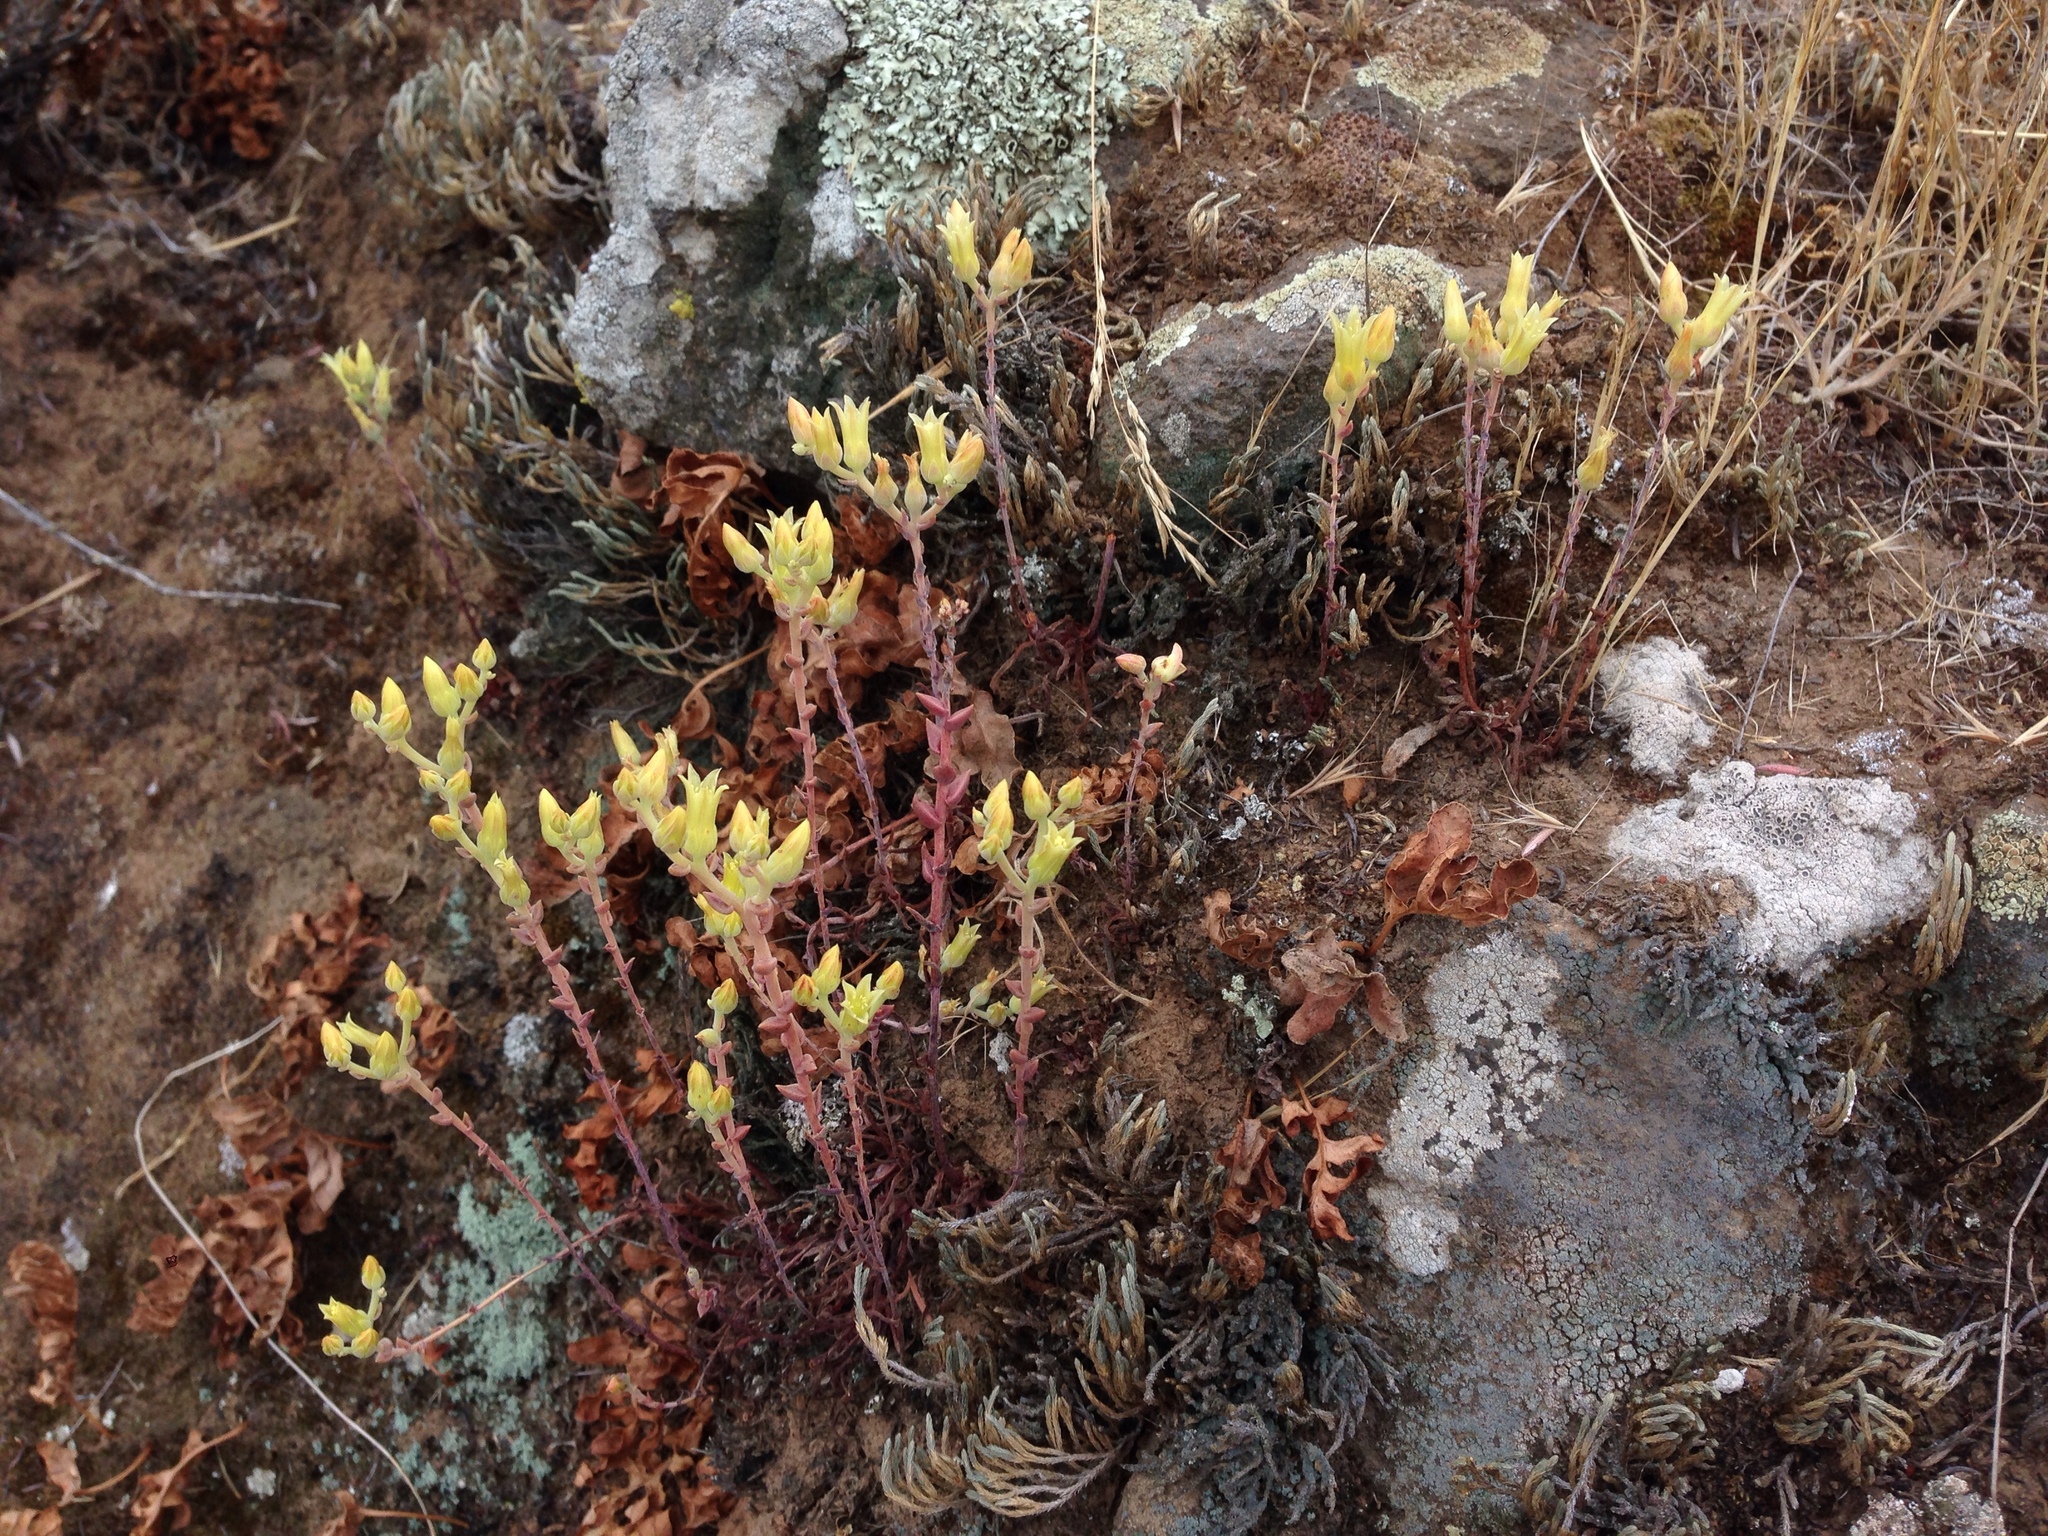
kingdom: Plantae
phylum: Tracheophyta
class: Magnoliopsida
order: Saxifragales
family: Crassulaceae
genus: Dudleya
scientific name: Dudleya parva
